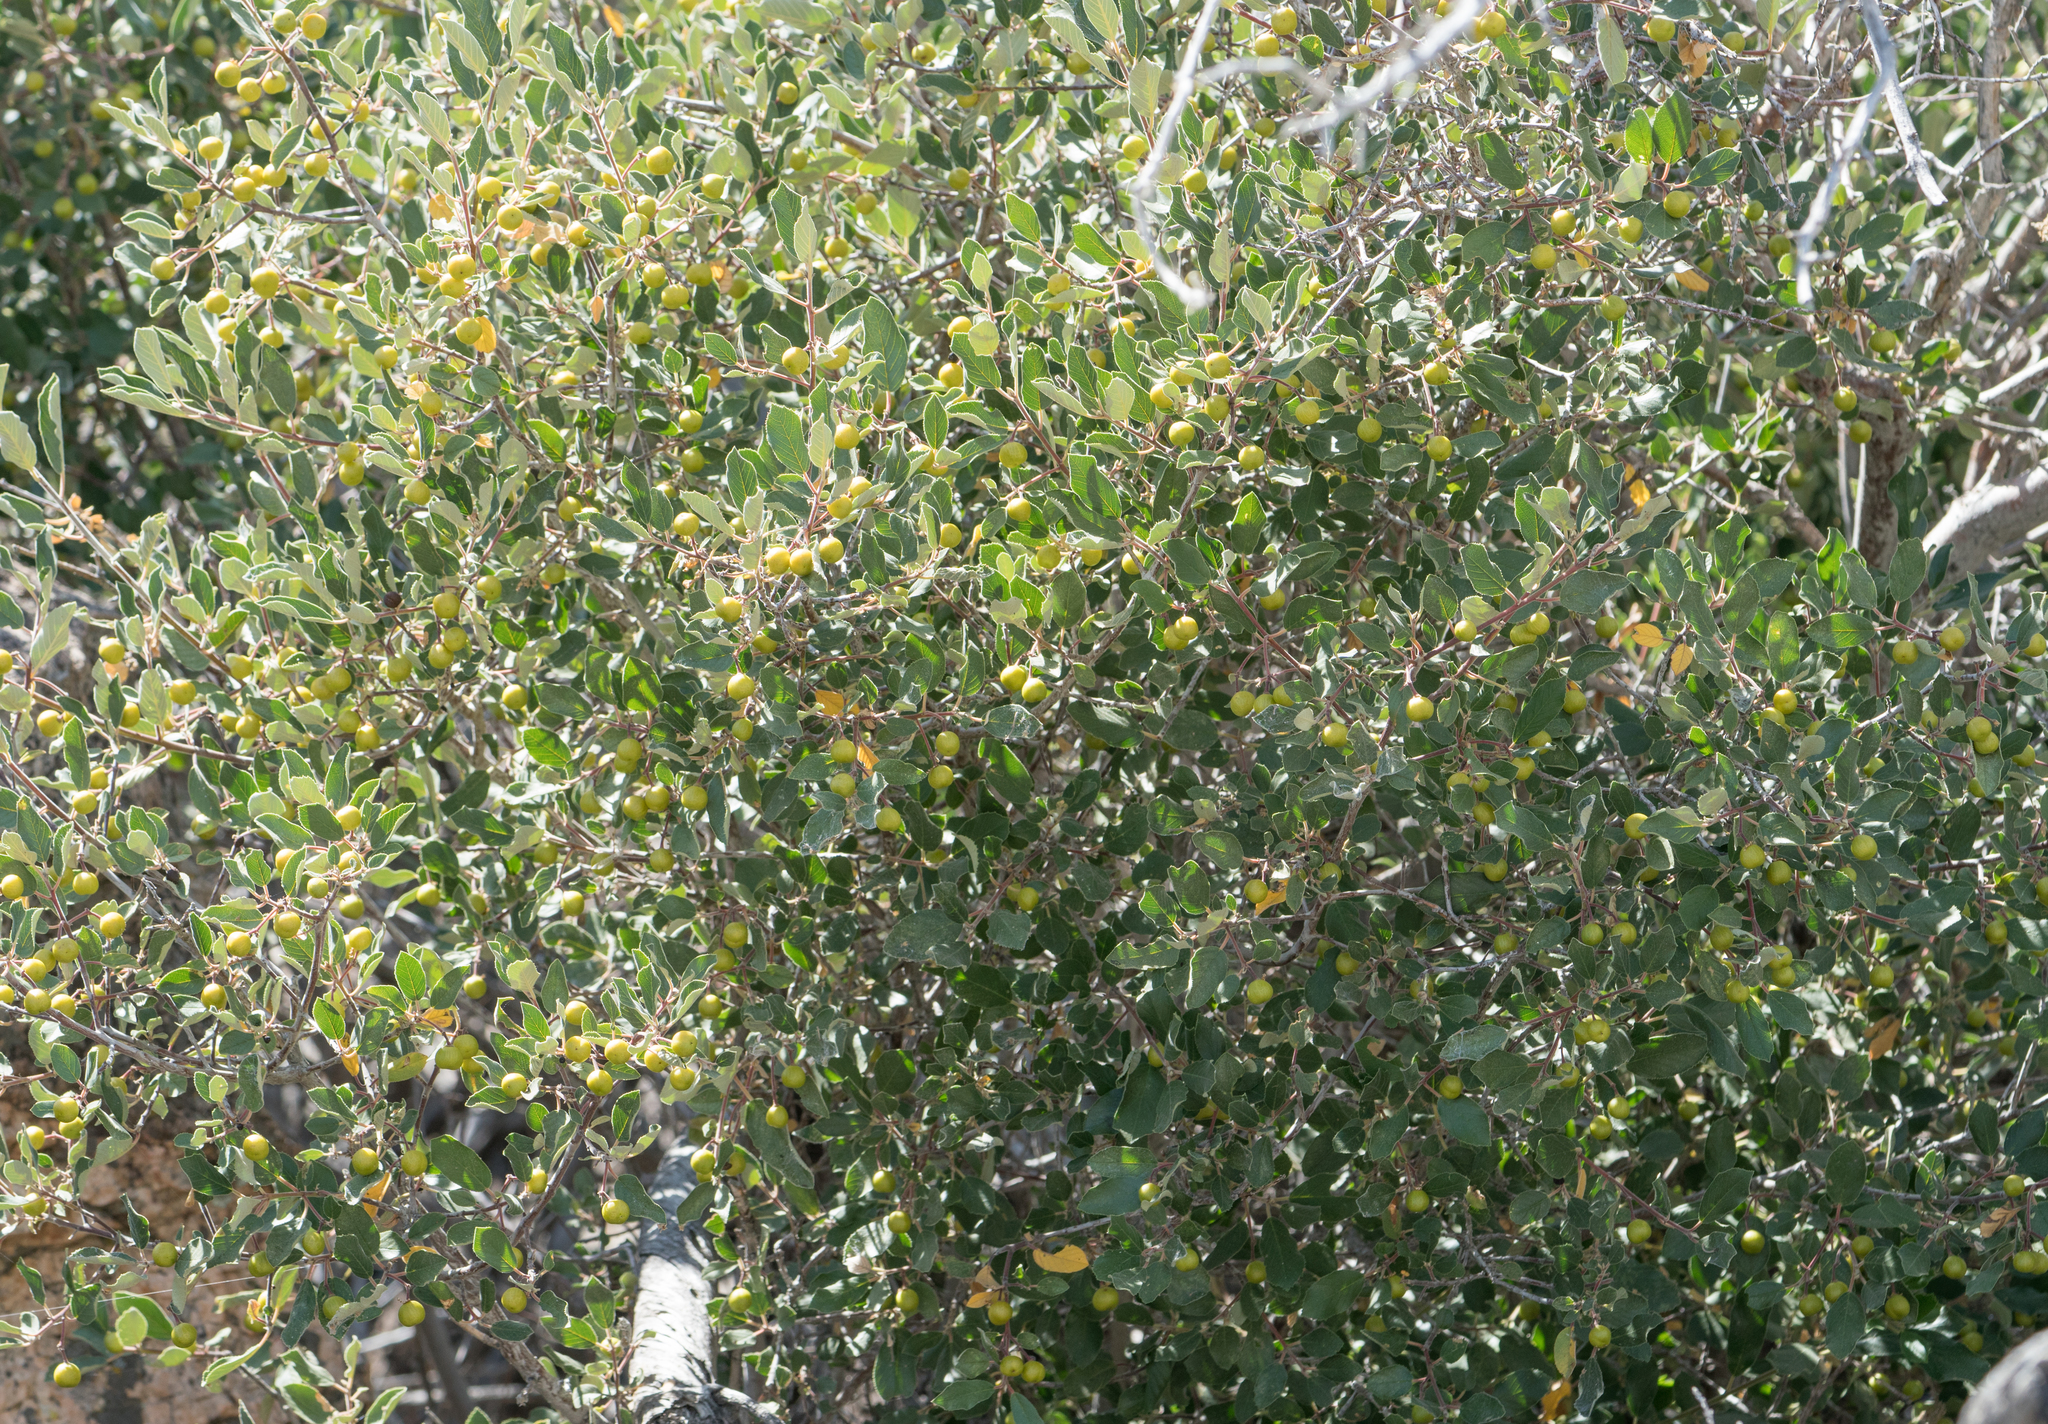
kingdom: Plantae
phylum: Tracheophyta
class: Magnoliopsida
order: Rosales
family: Rhamnaceae
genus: Frangula
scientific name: Frangula californica
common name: California buckthorn
